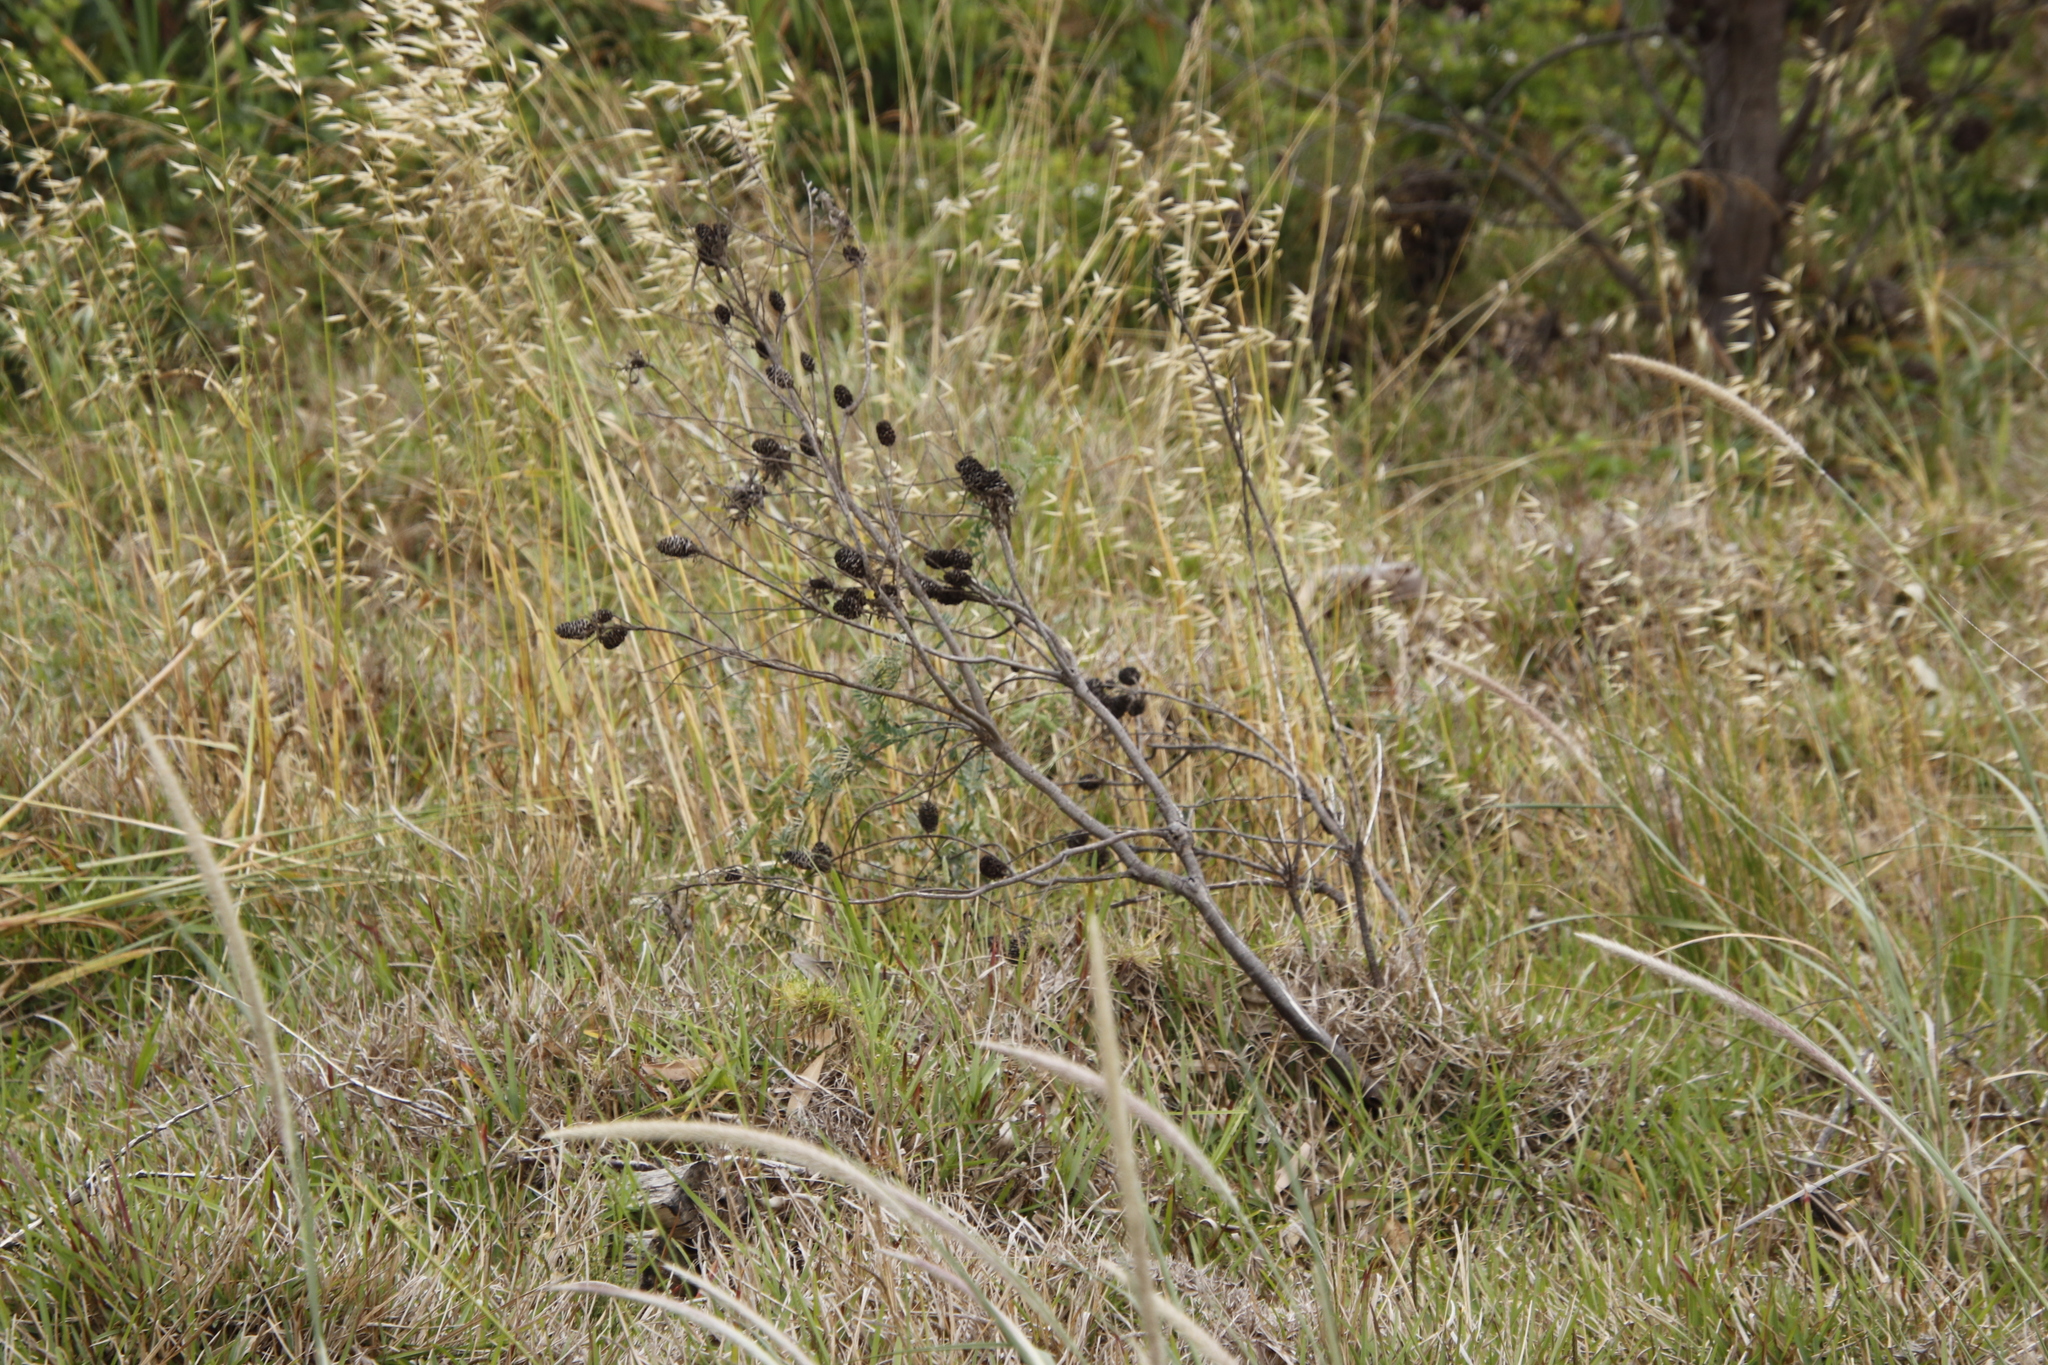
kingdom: Plantae
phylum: Tracheophyta
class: Magnoliopsida
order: Proteales
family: Proteaceae
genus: Leucadendron
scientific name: Leucadendron macowanii
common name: Acacia-leaf conebush
